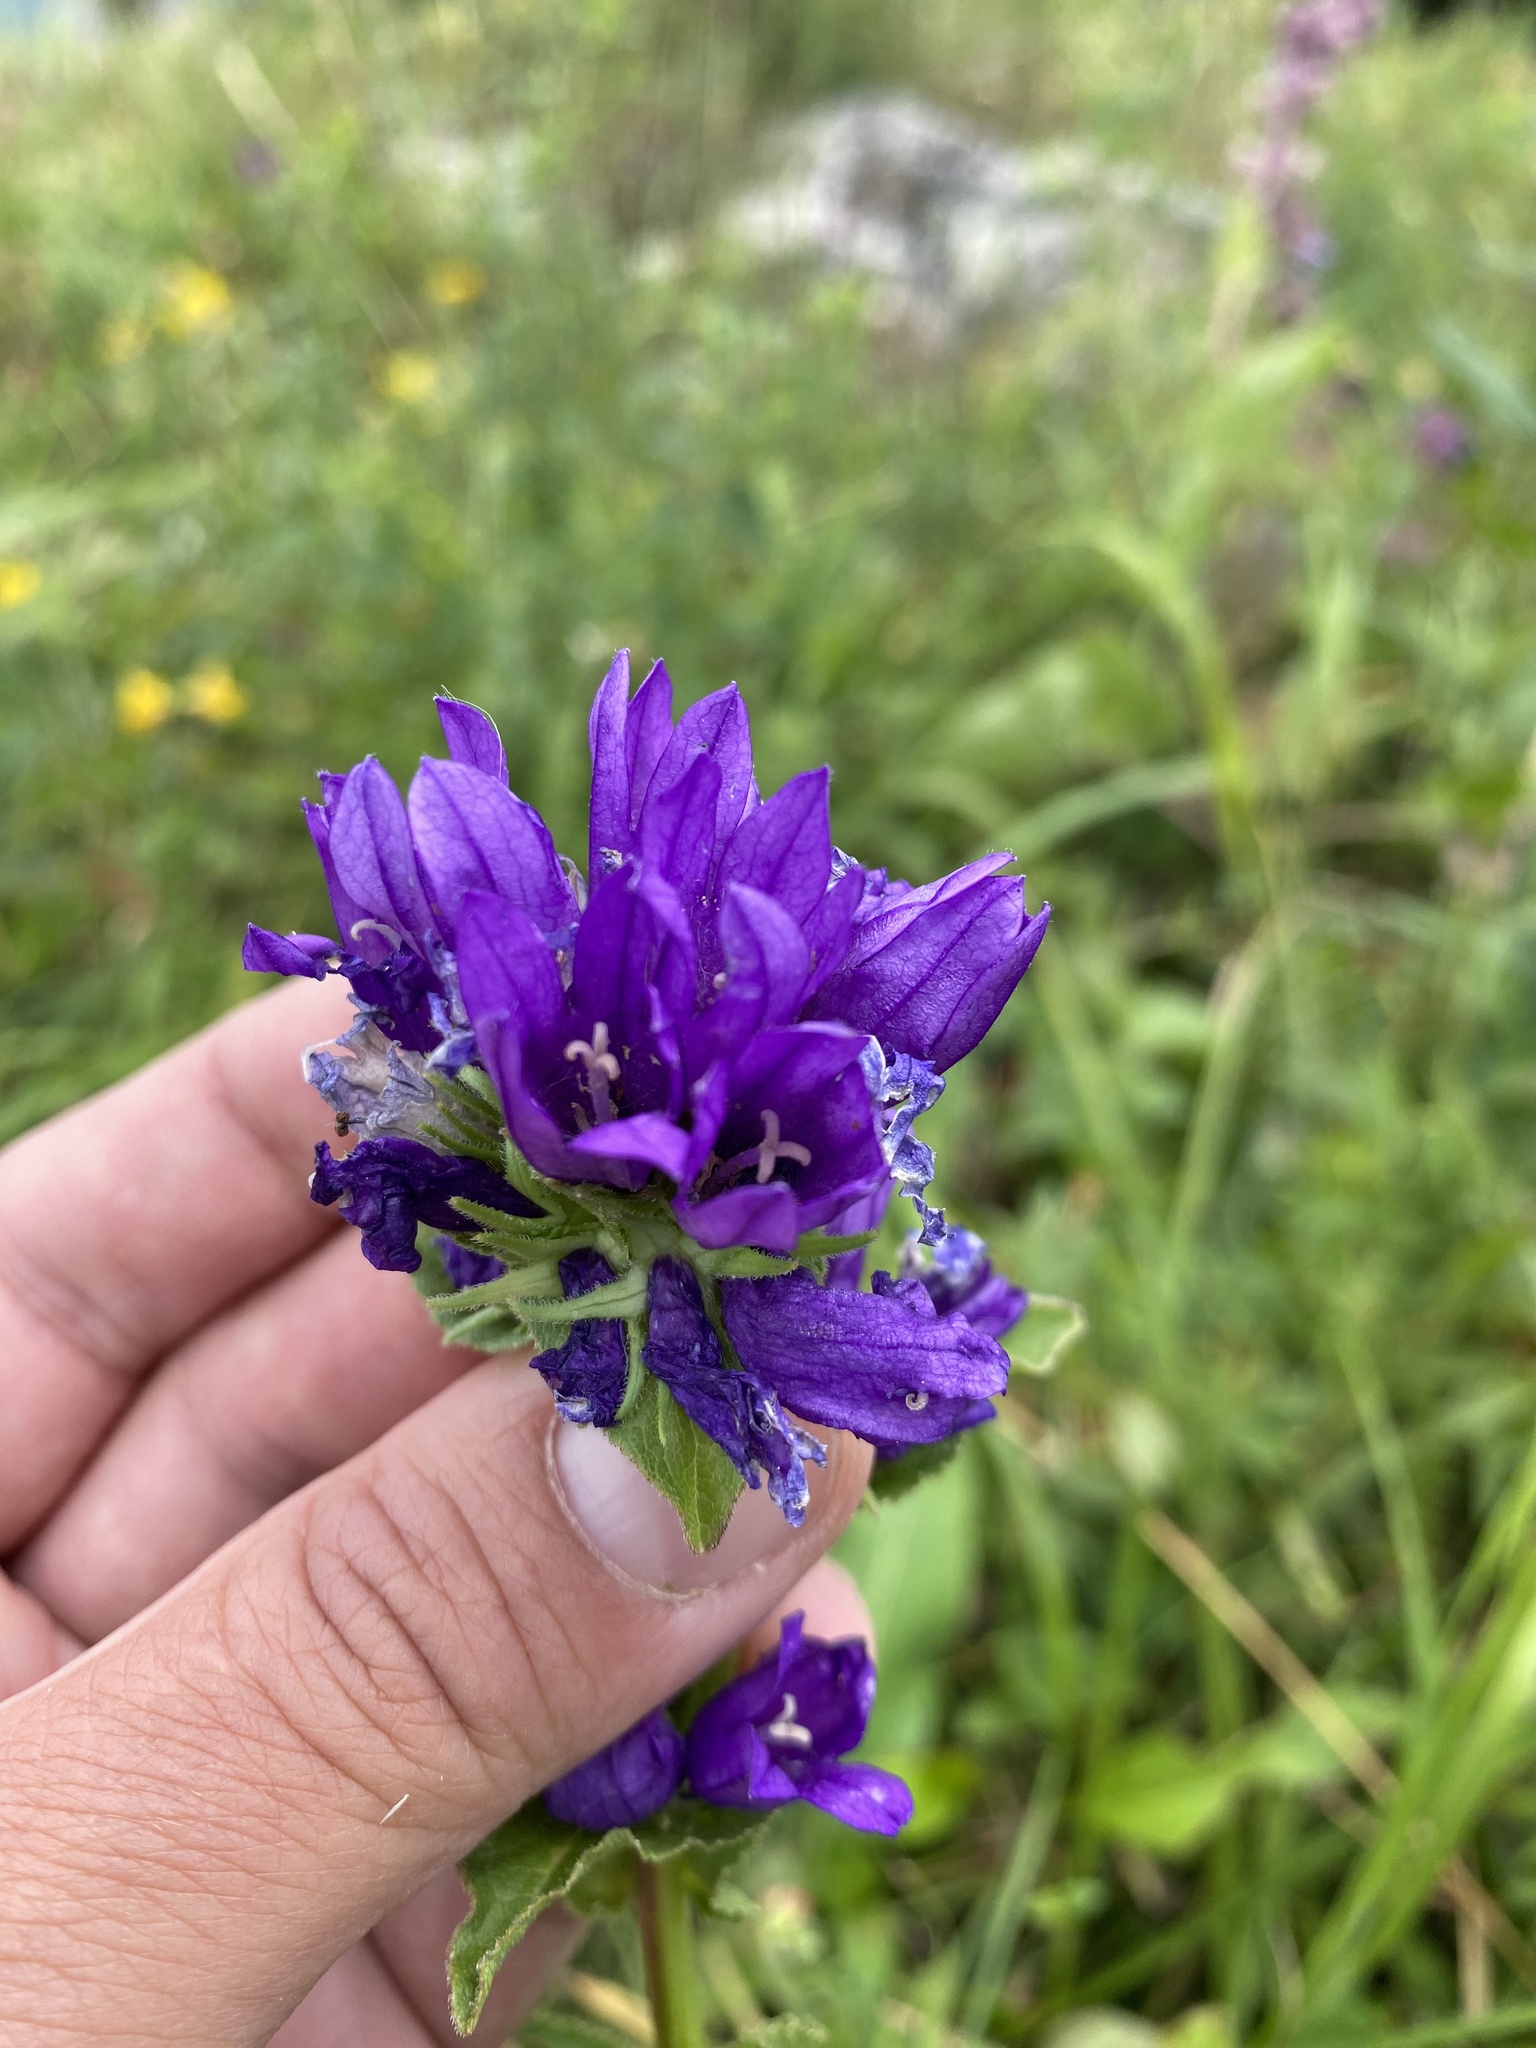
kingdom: Plantae
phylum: Tracheophyta
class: Magnoliopsida
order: Asterales
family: Campanulaceae
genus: Campanula
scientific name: Campanula glomerata
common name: Clustered bellflower
